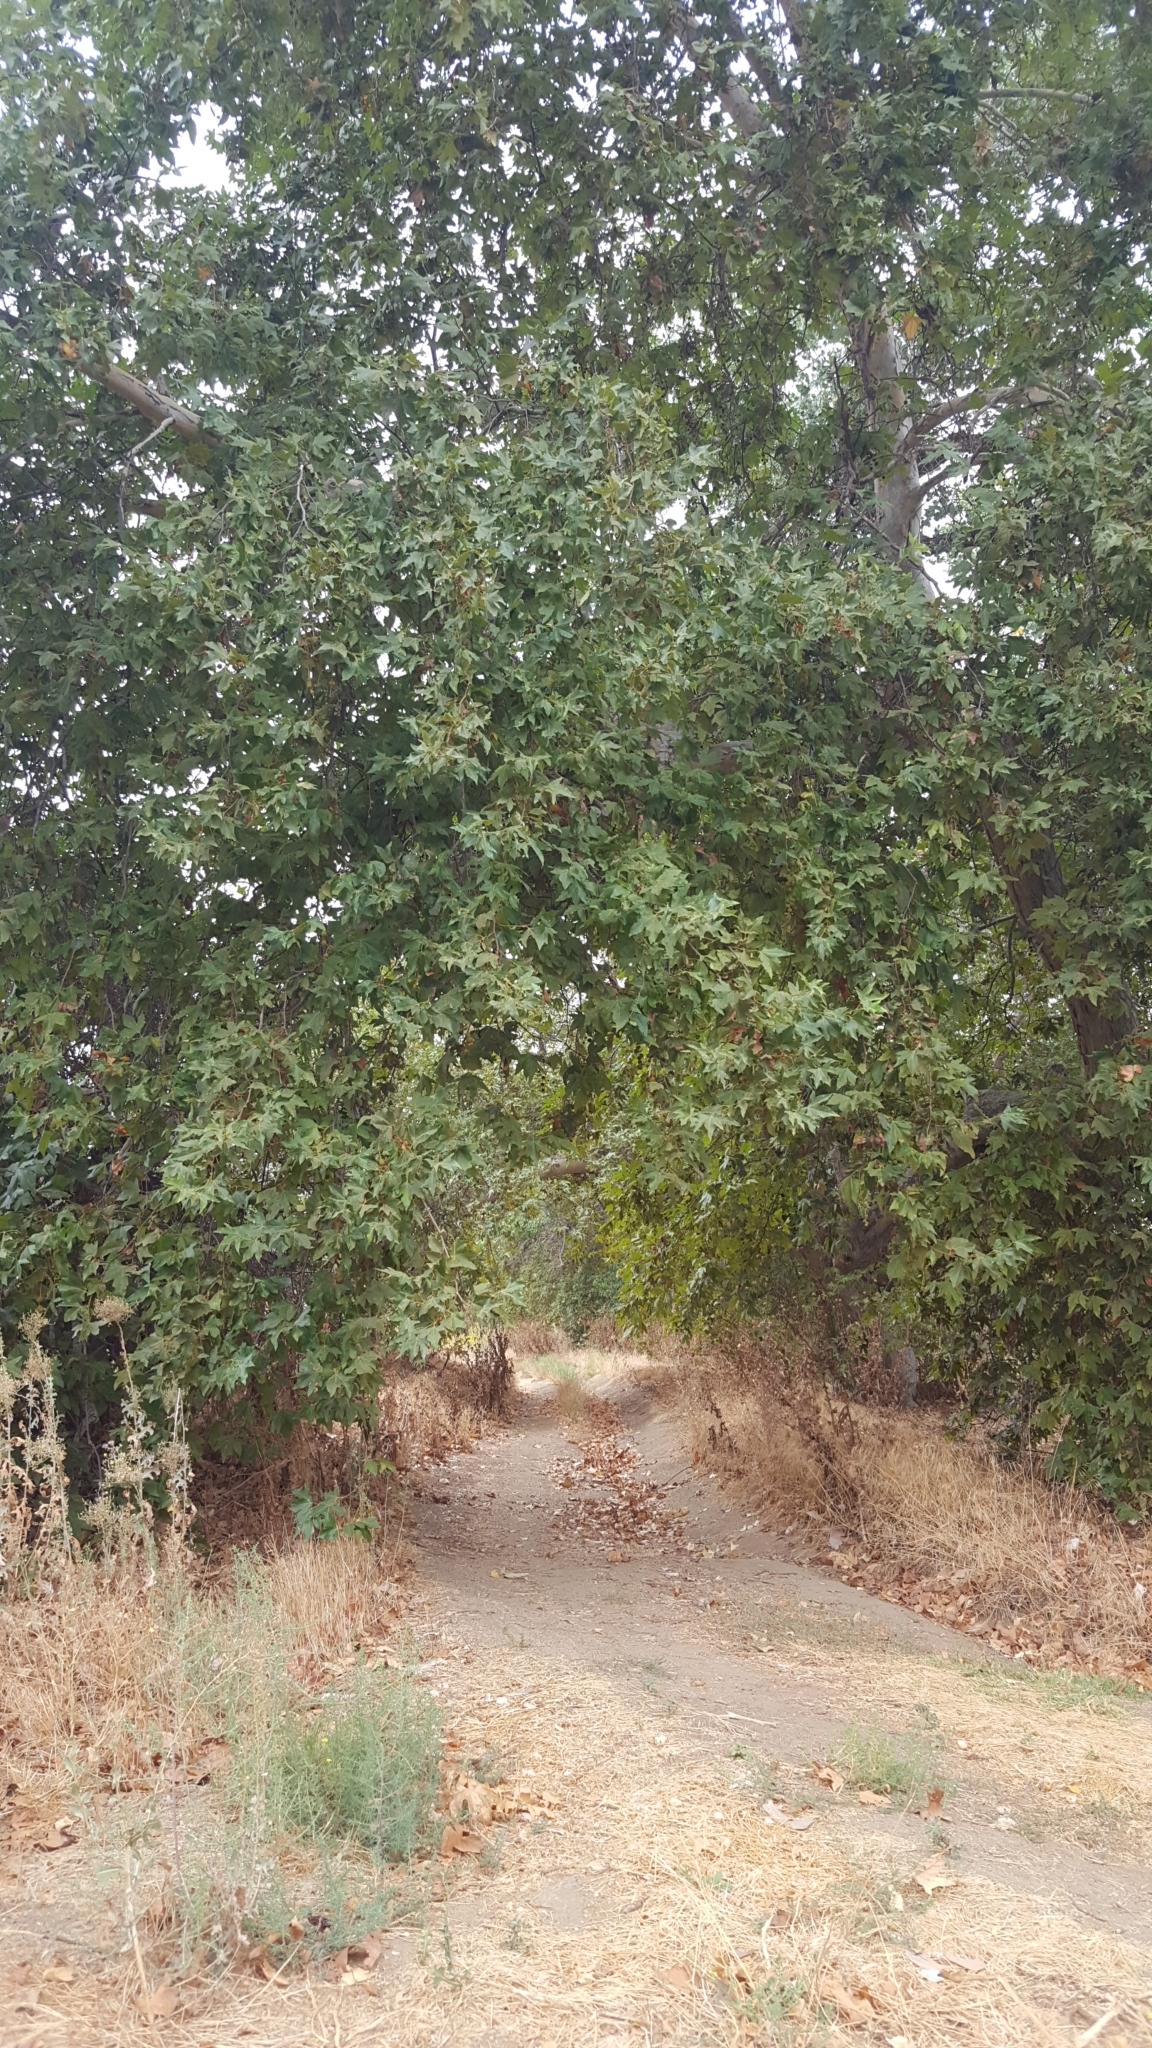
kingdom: Plantae
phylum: Tracheophyta
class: Magnoliopsida
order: Proteales
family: Platanaceae
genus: Platanus
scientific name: Platanus racemosa
